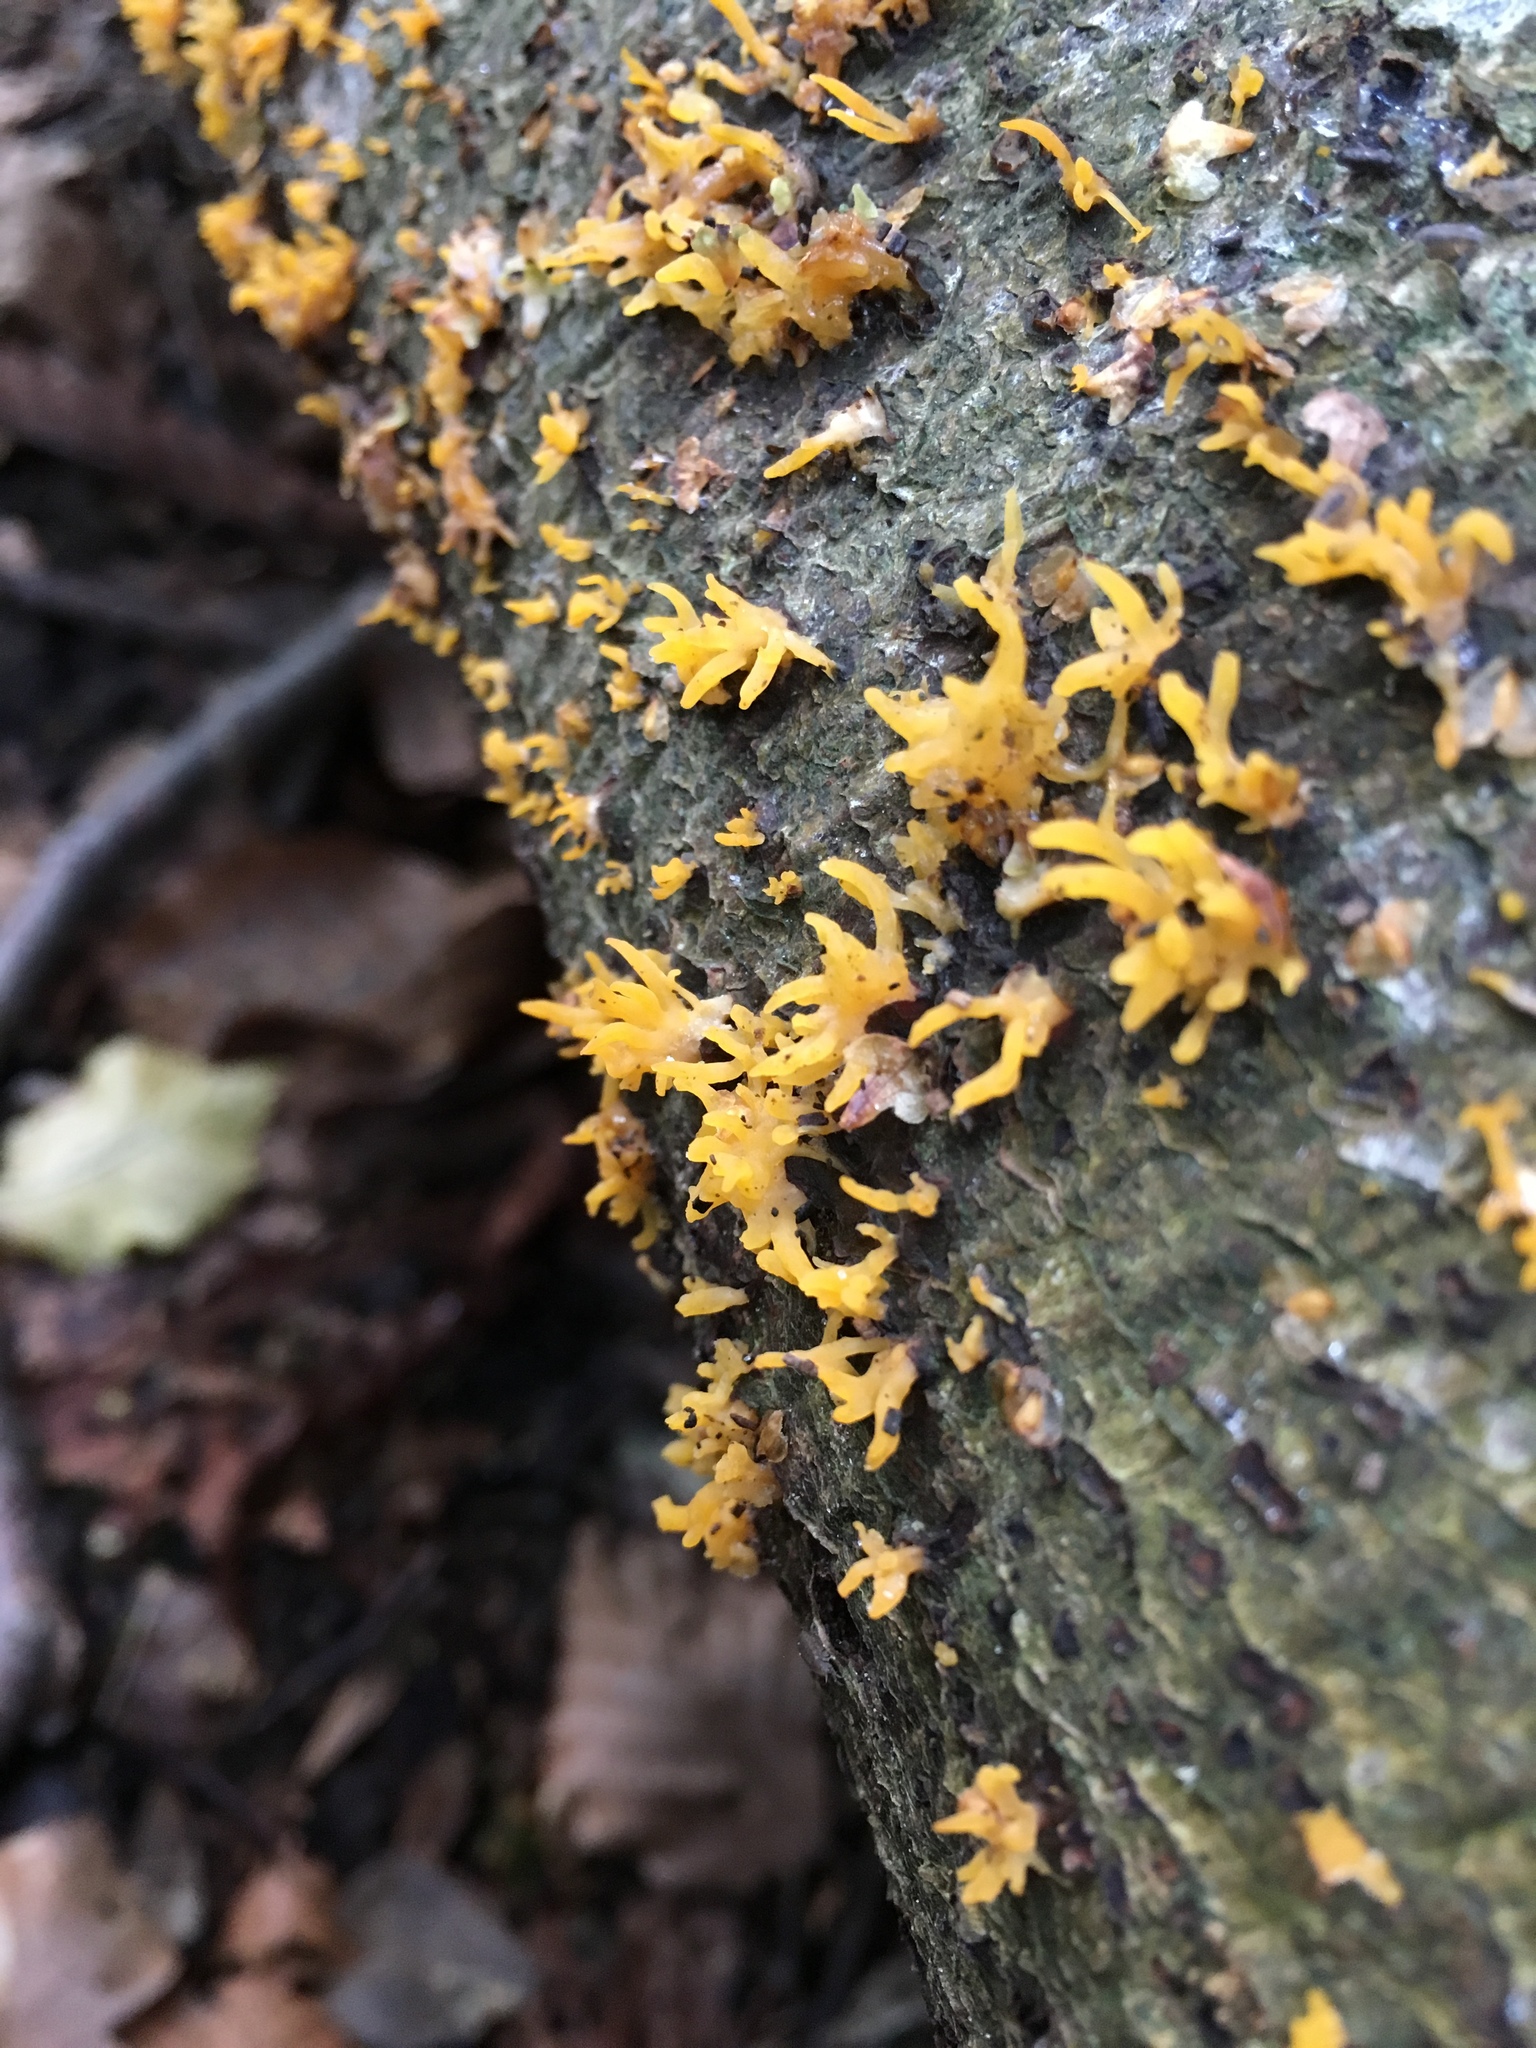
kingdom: Fungi
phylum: Basidiomycota
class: Dacrymycetes
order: Dacrymycetales
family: Dacrymycetaceae
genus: Calocera
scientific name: Calocera cornea
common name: Small stagshorn
